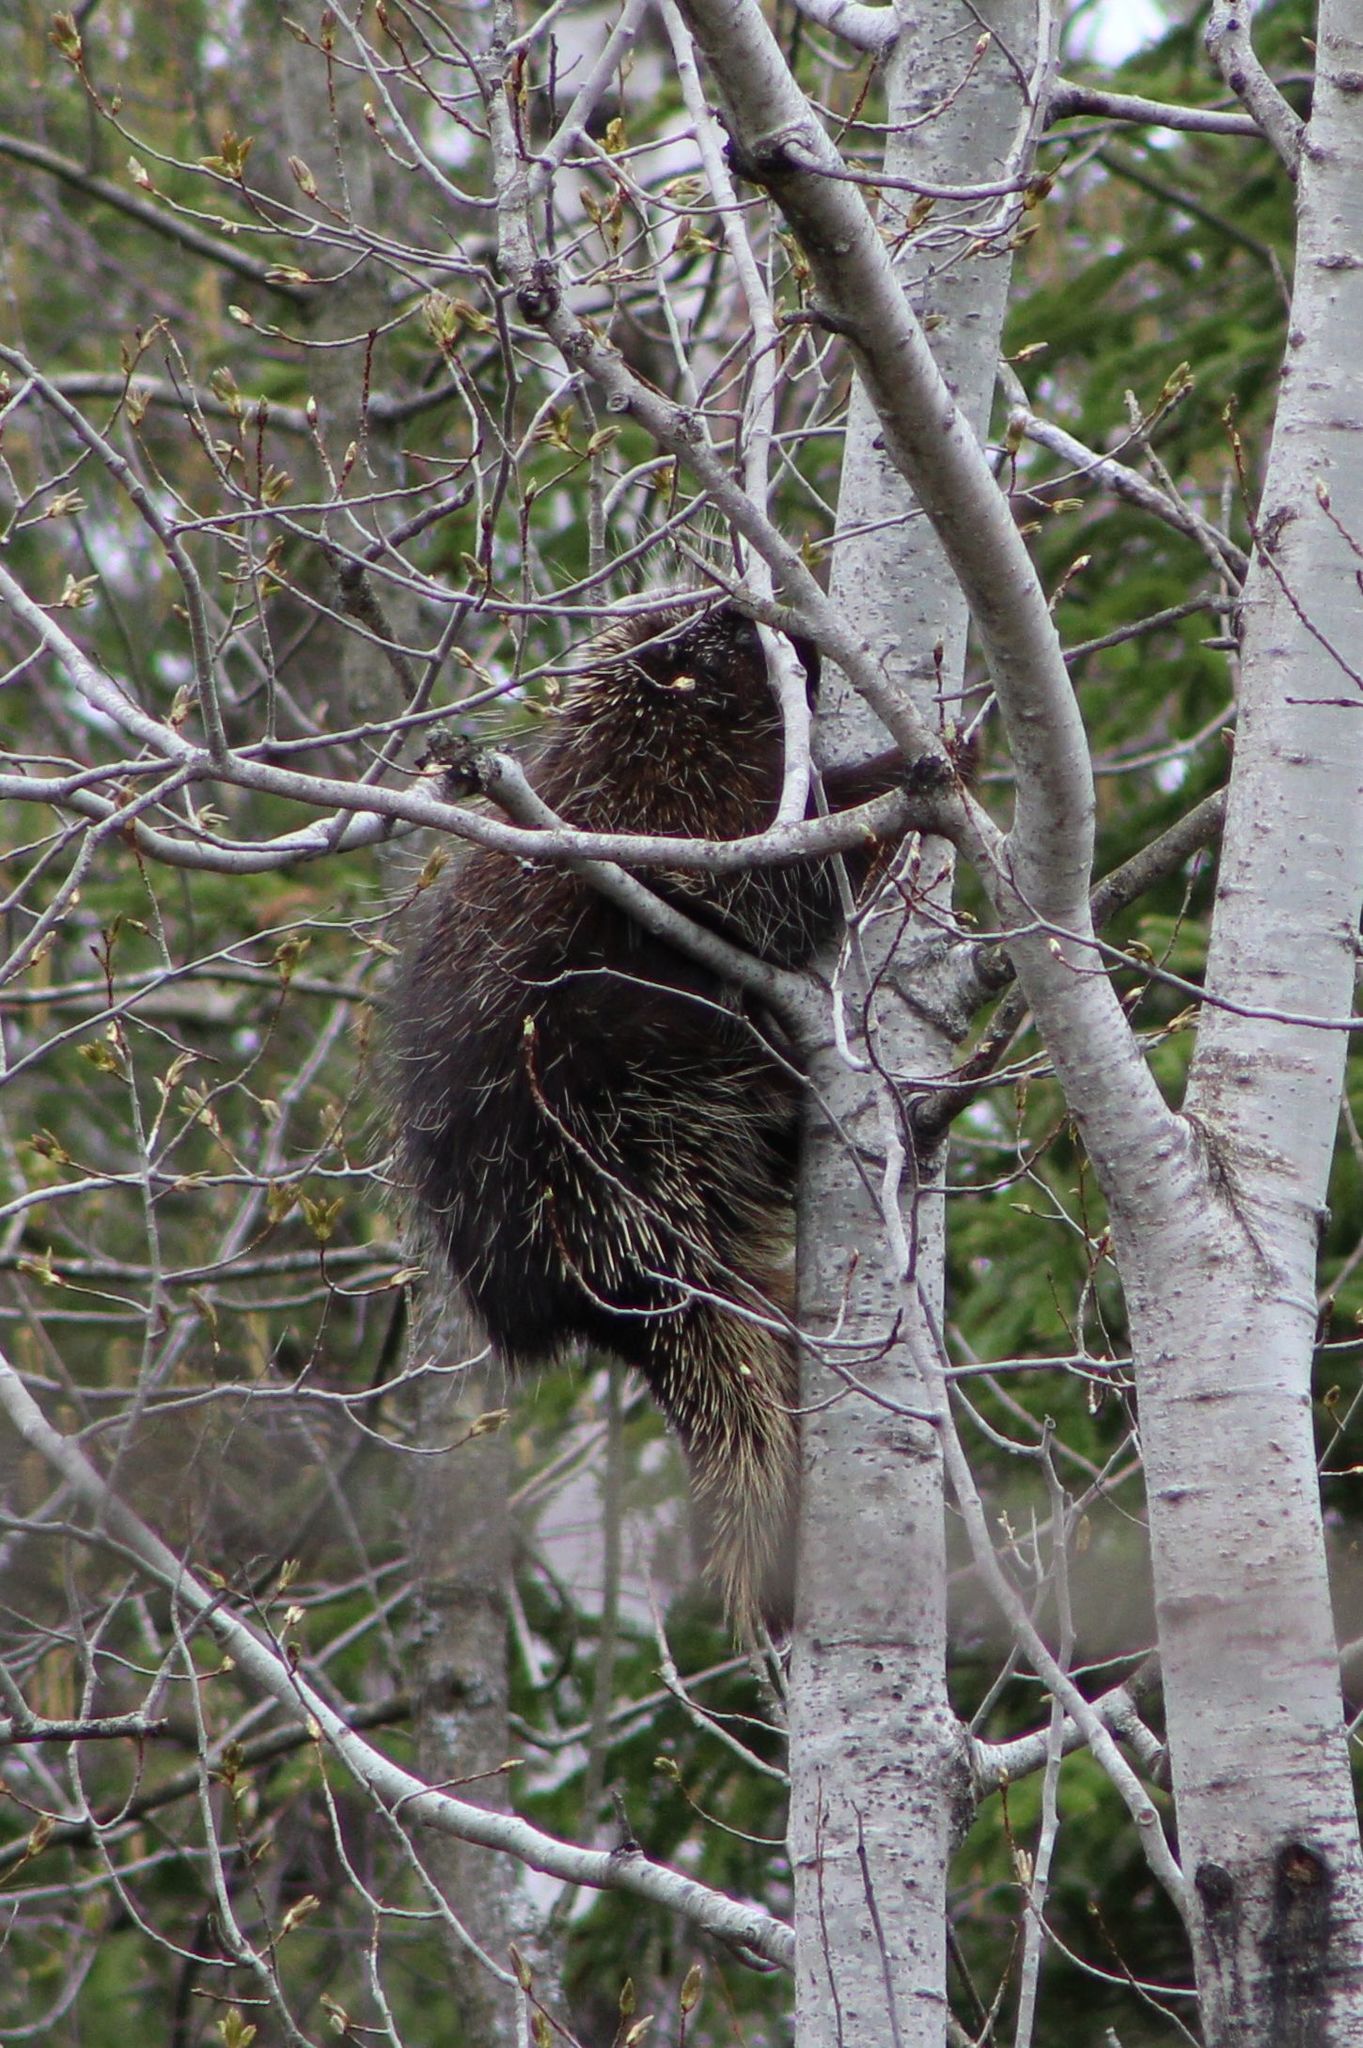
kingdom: Animalia
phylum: Chordata
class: Mammalia
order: Rodentia
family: Erethizontidae
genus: Erethizon
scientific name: Erethizon dorsatus
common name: North american porcupine
